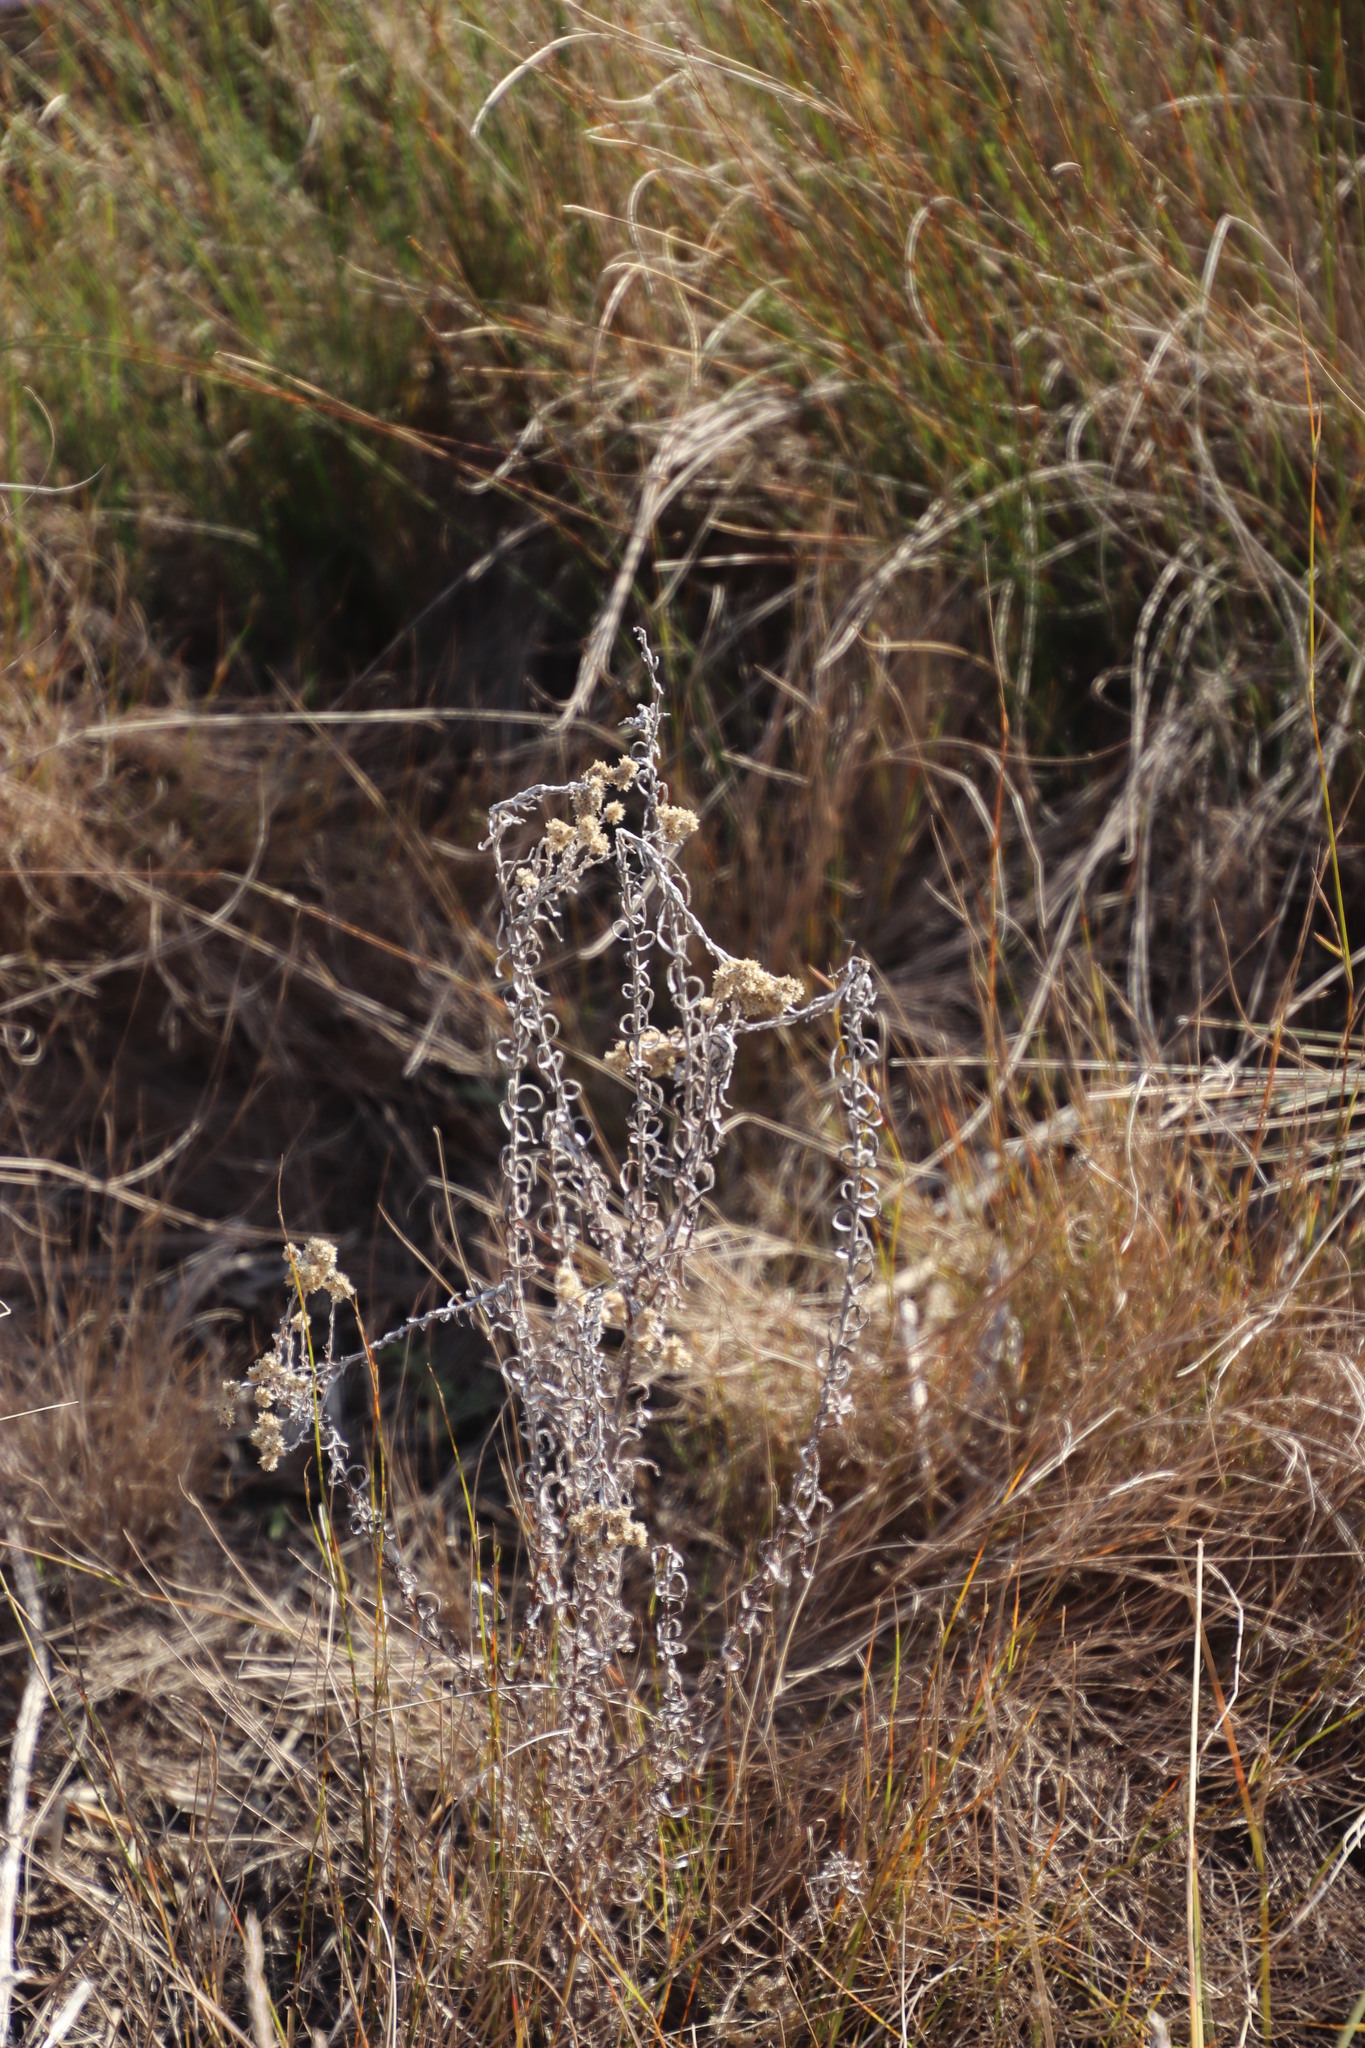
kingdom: Plantae
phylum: Tracheophyta
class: Magnoliopsida
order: Asterales
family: Asteraceae
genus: Helichrysum
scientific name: Helichrysum foetidum
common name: Stinking everlasting
